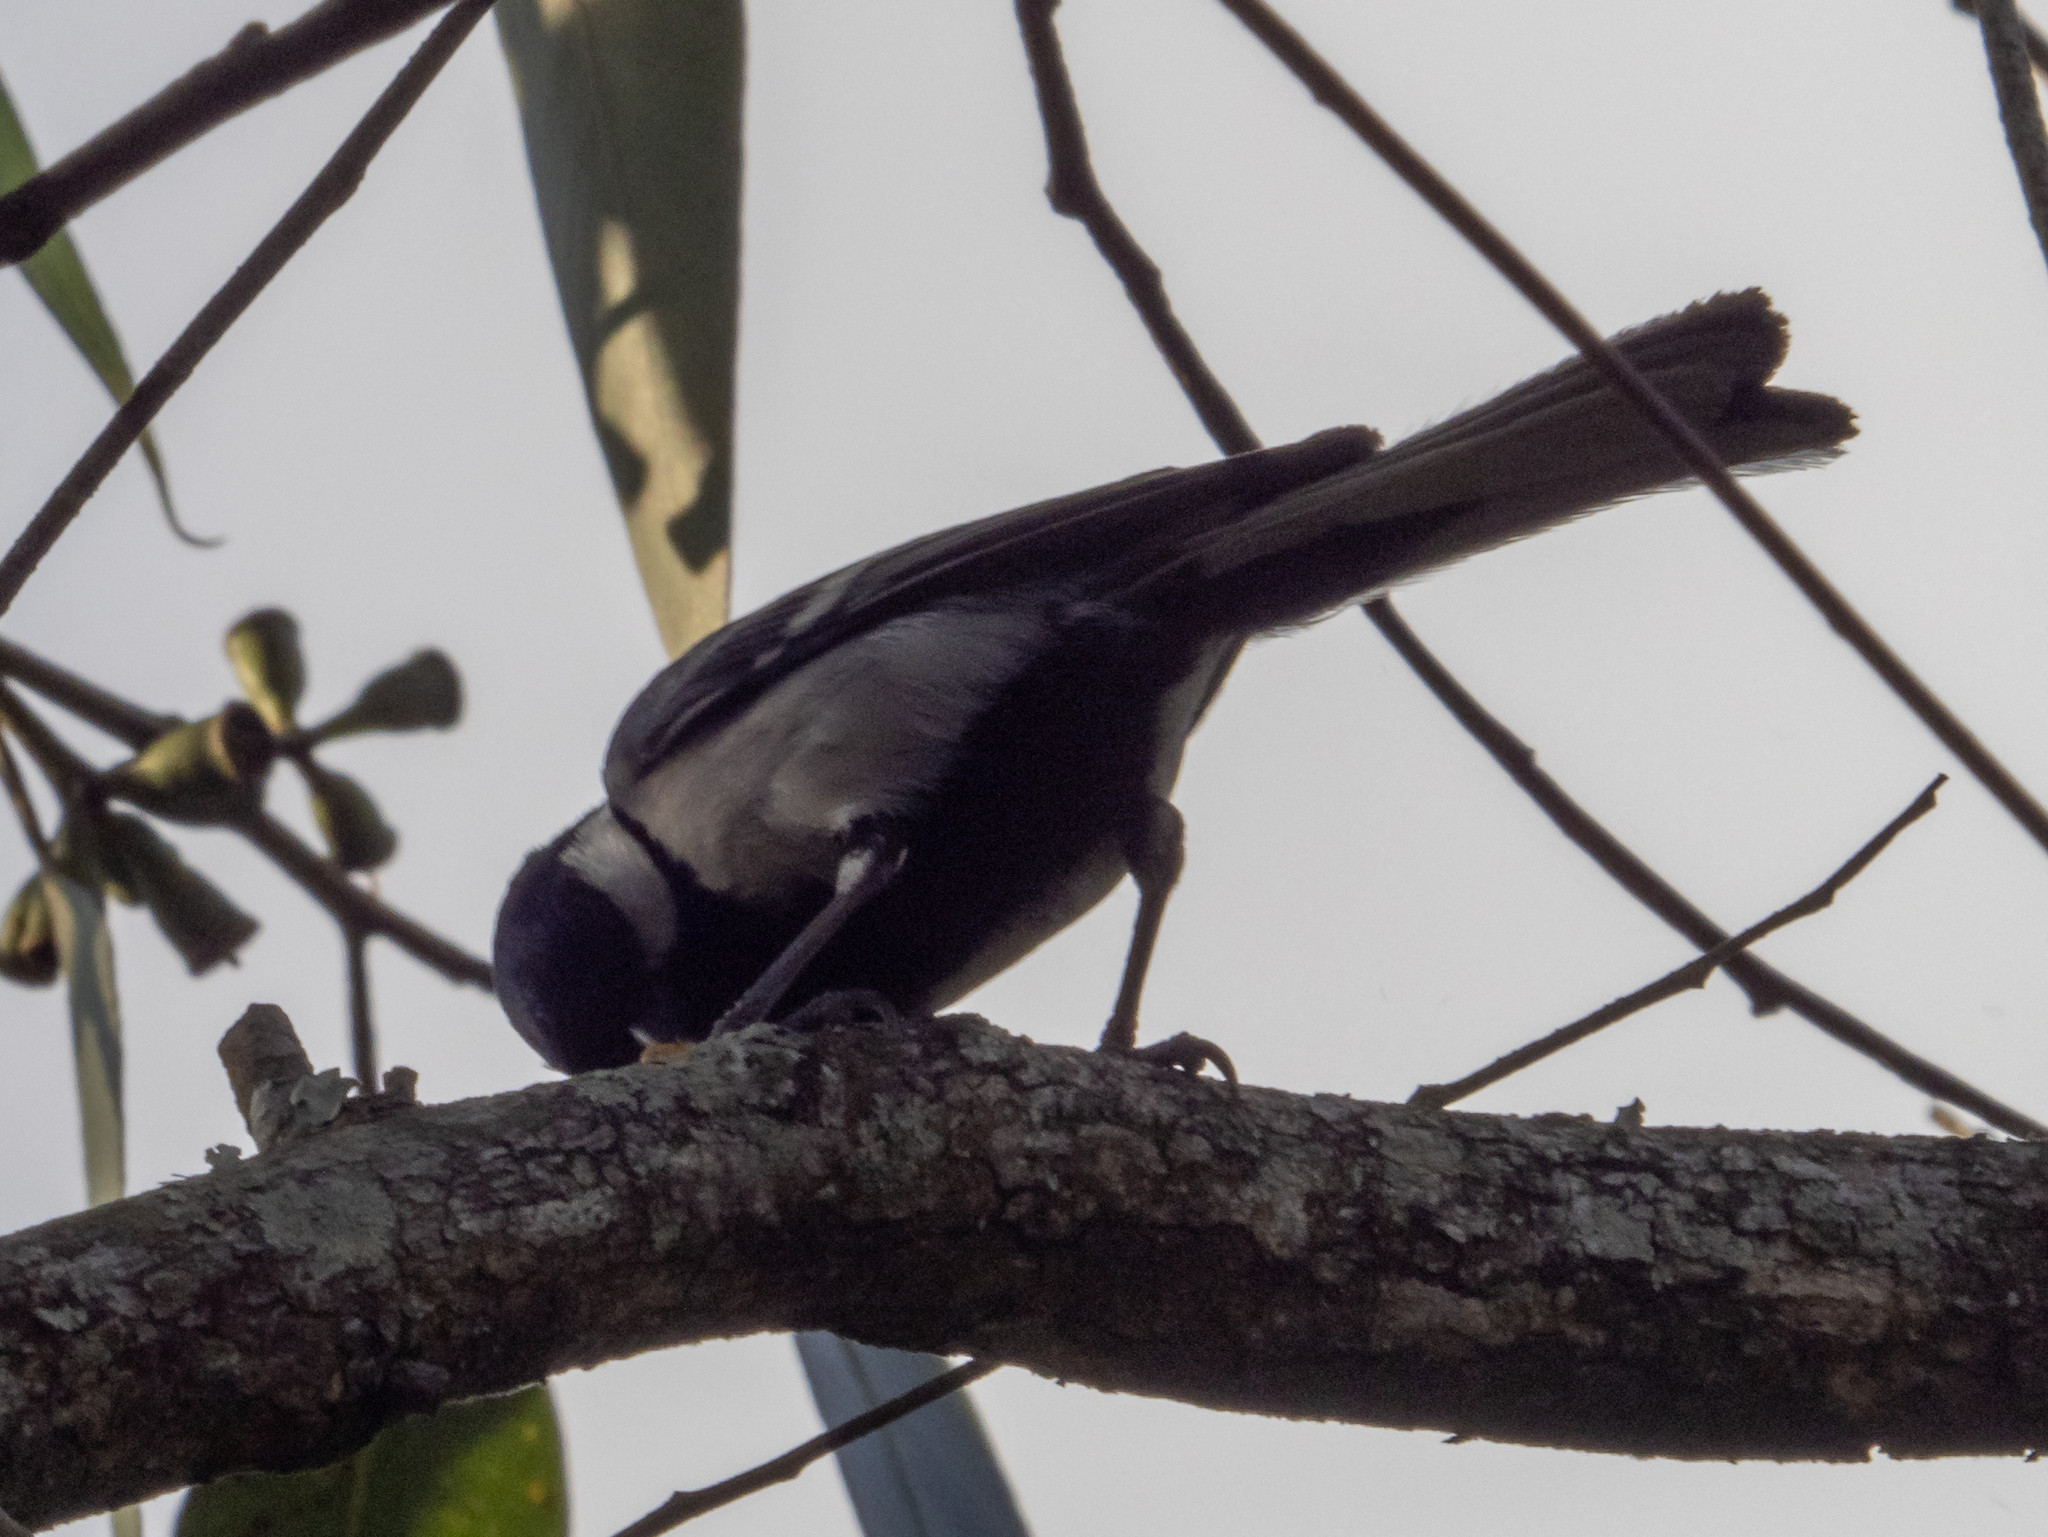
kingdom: Animalia
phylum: Chordata
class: Aves
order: Passeriformes
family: Paridae
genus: Parus
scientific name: Parus cinereus
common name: Cinereous tit
